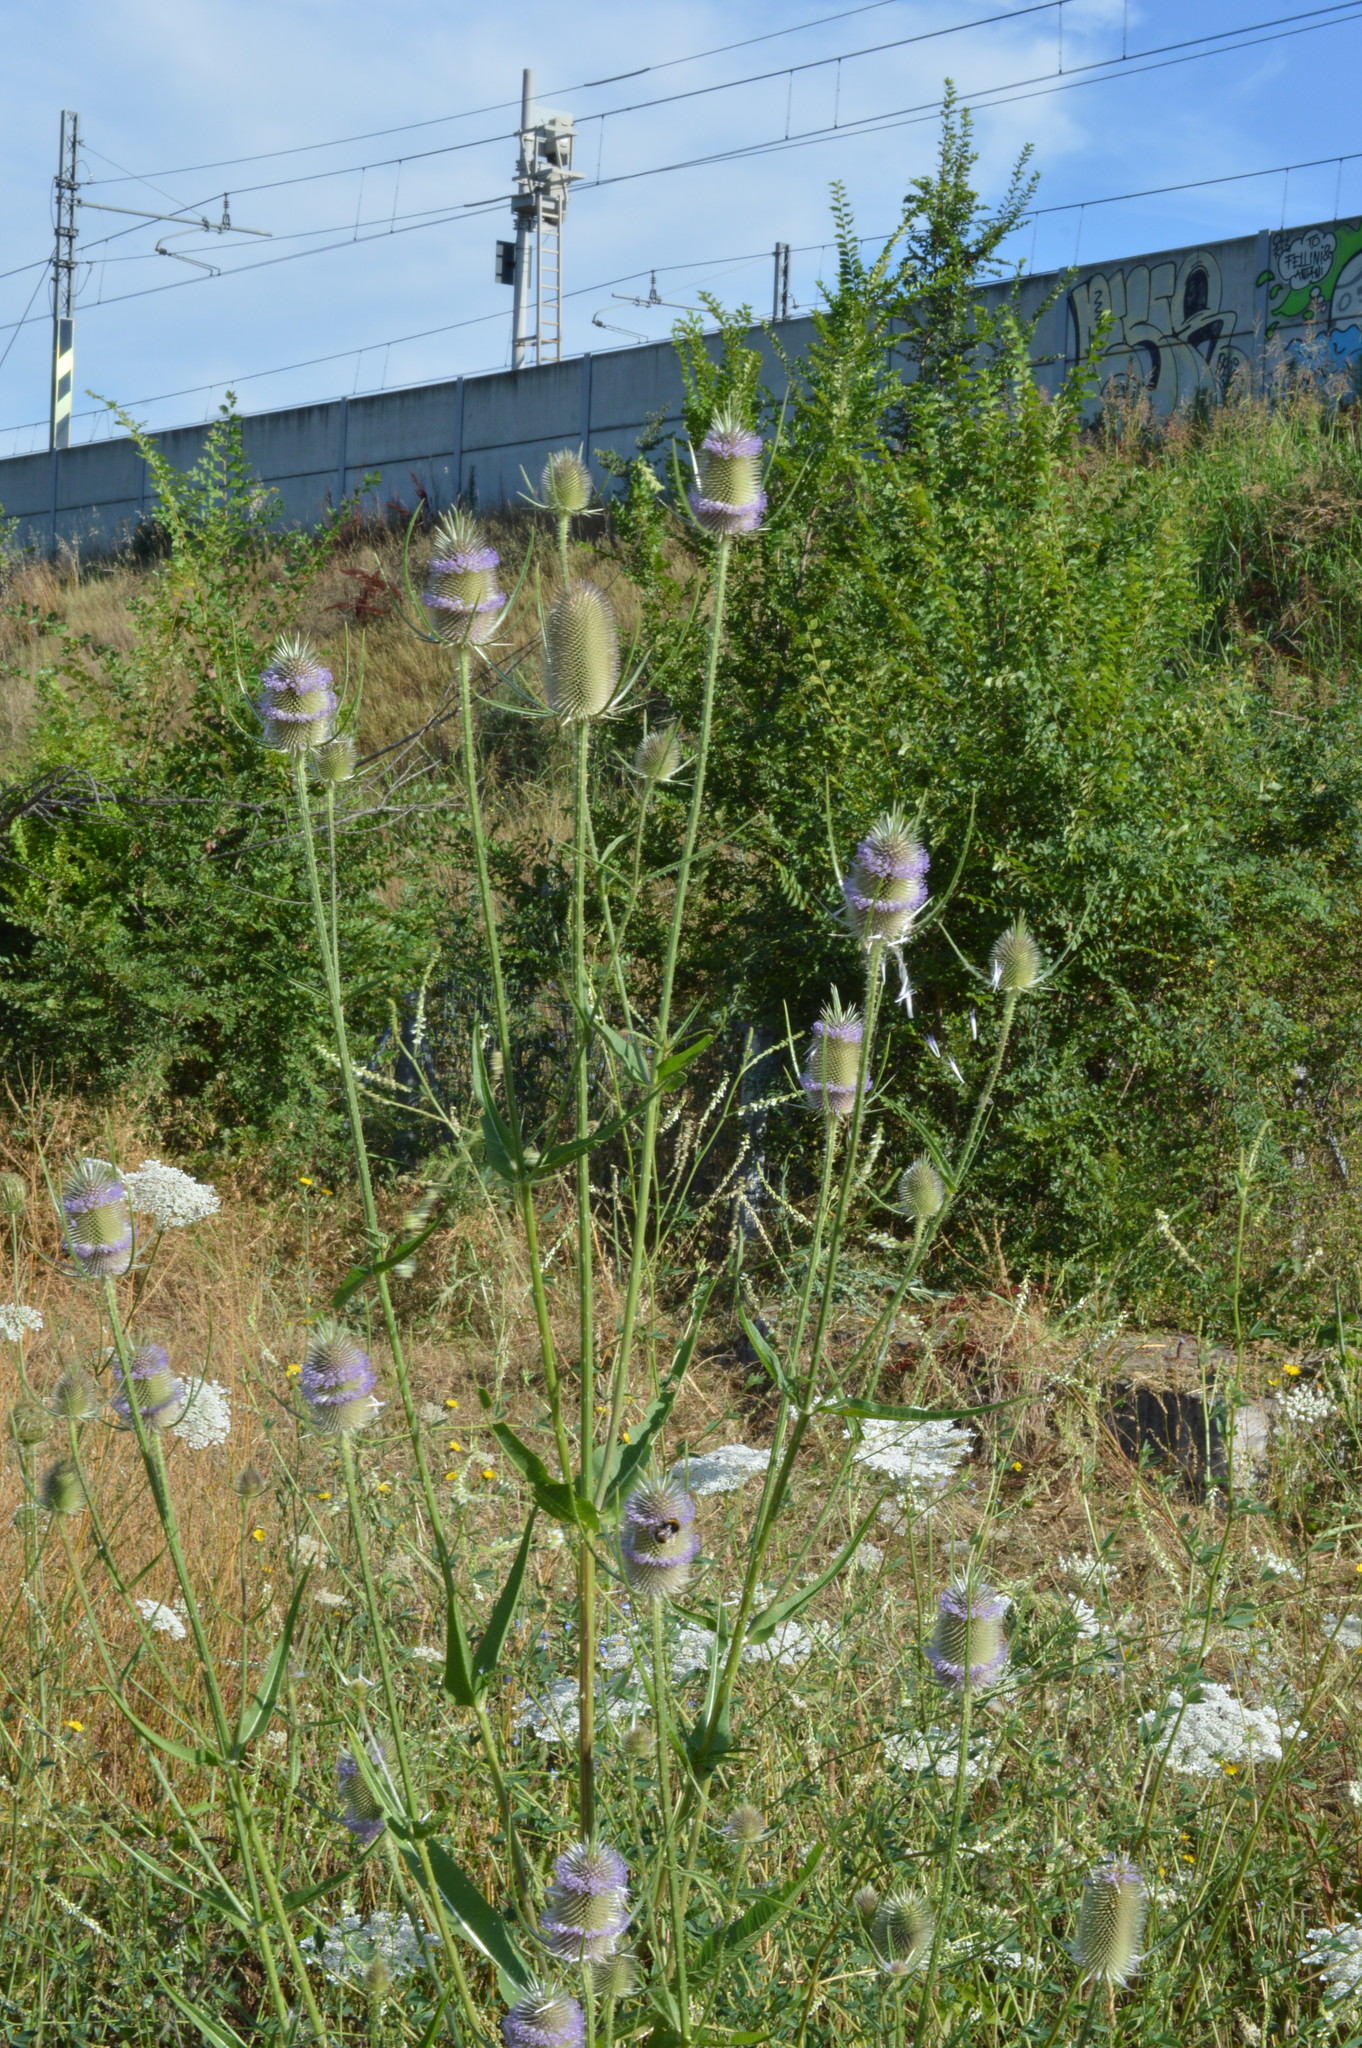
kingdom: Plantae
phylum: Tracheophyta
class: Magnoliopsida
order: Dipsacales
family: Caprifoliaceae
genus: Dipsacus
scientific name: Dipsacus fullonum
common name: Teasel
